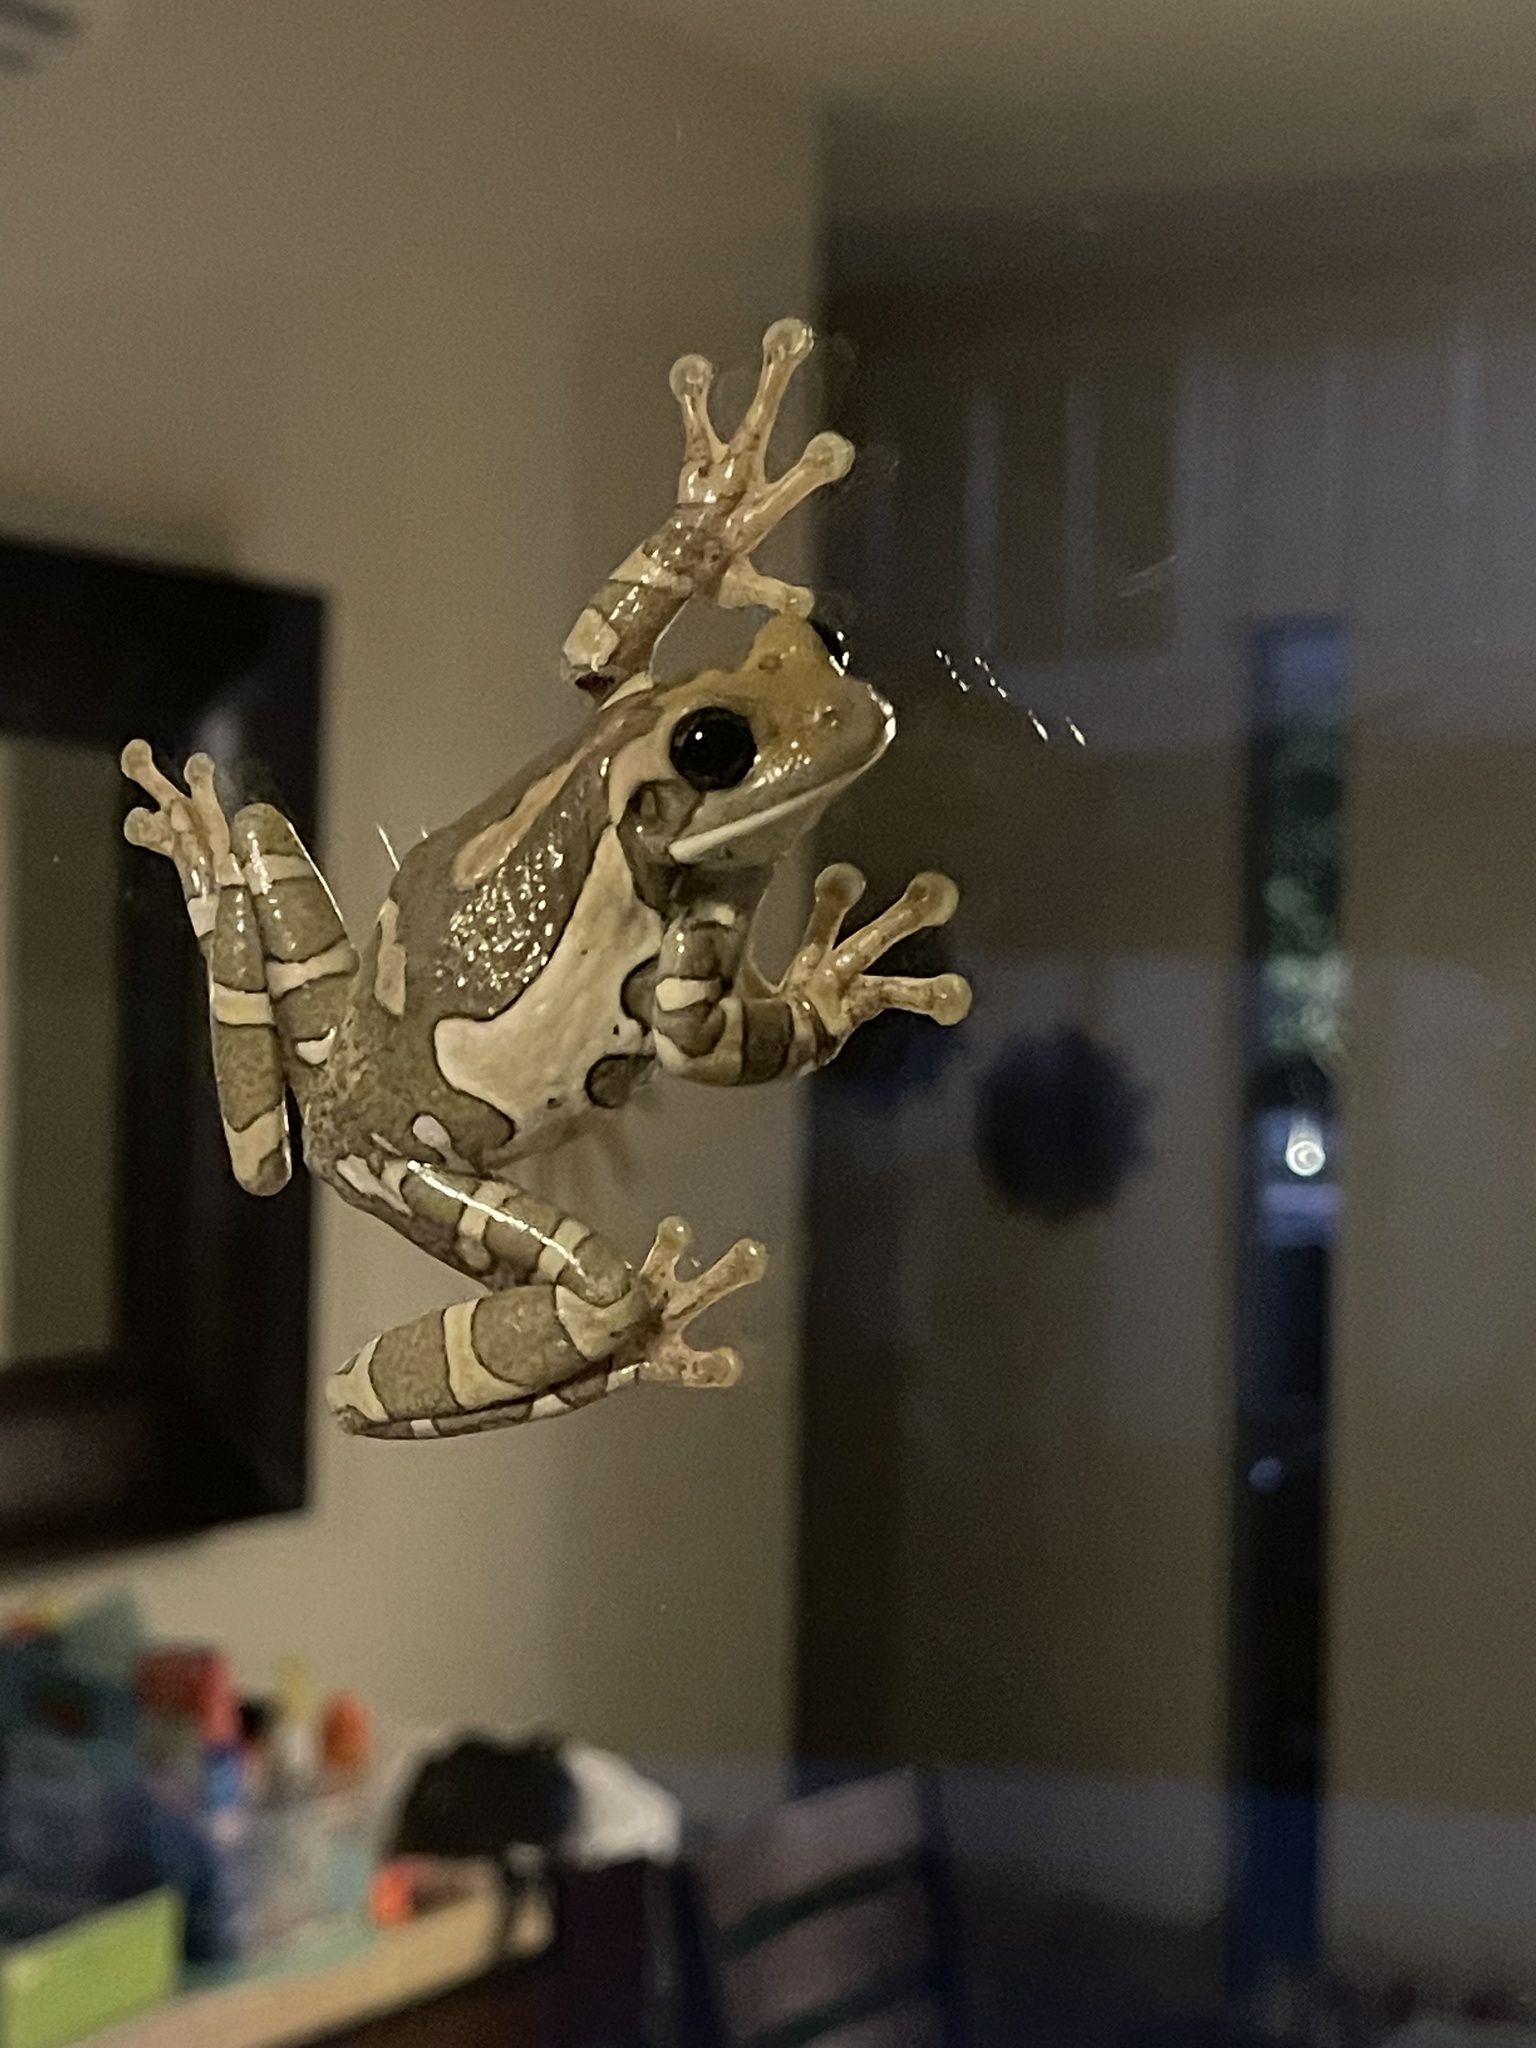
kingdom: Animalia
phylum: Chordata
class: Amphibia
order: Anura
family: Hylidae
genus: Trachycephalus
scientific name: Trachycephalus vermiculatus
